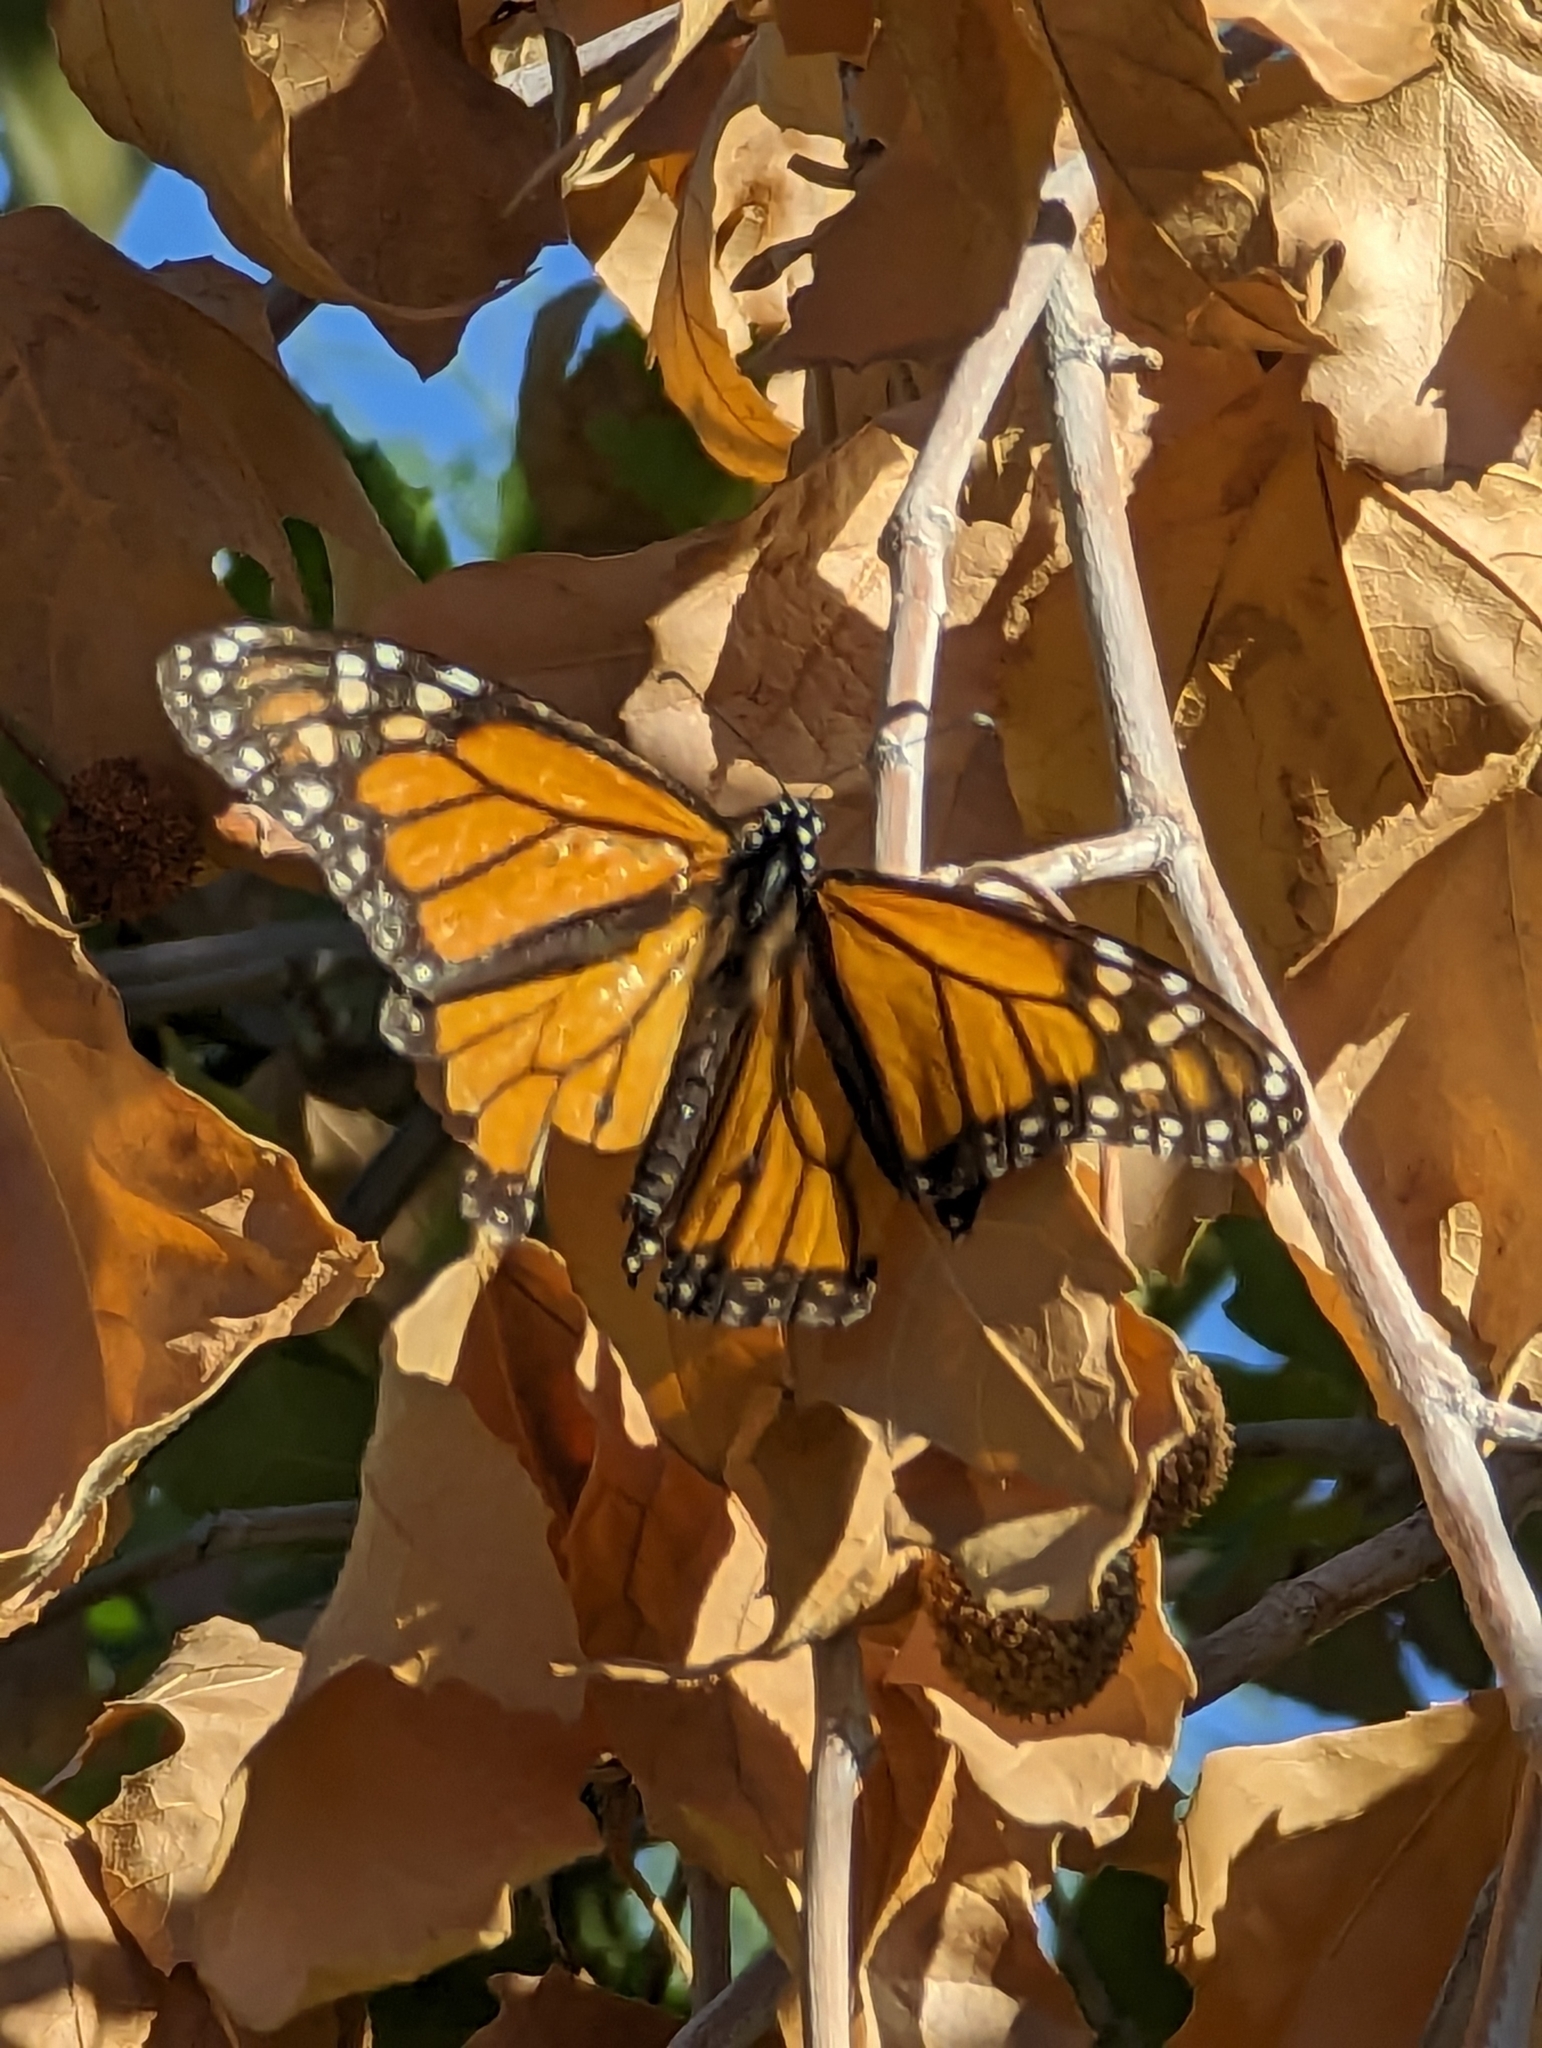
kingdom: Animalia
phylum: Arthropoda
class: Insecta
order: Lepidoptera
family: Nymphalidae
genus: Danaus
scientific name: Danaus plexippus
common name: Monarch
